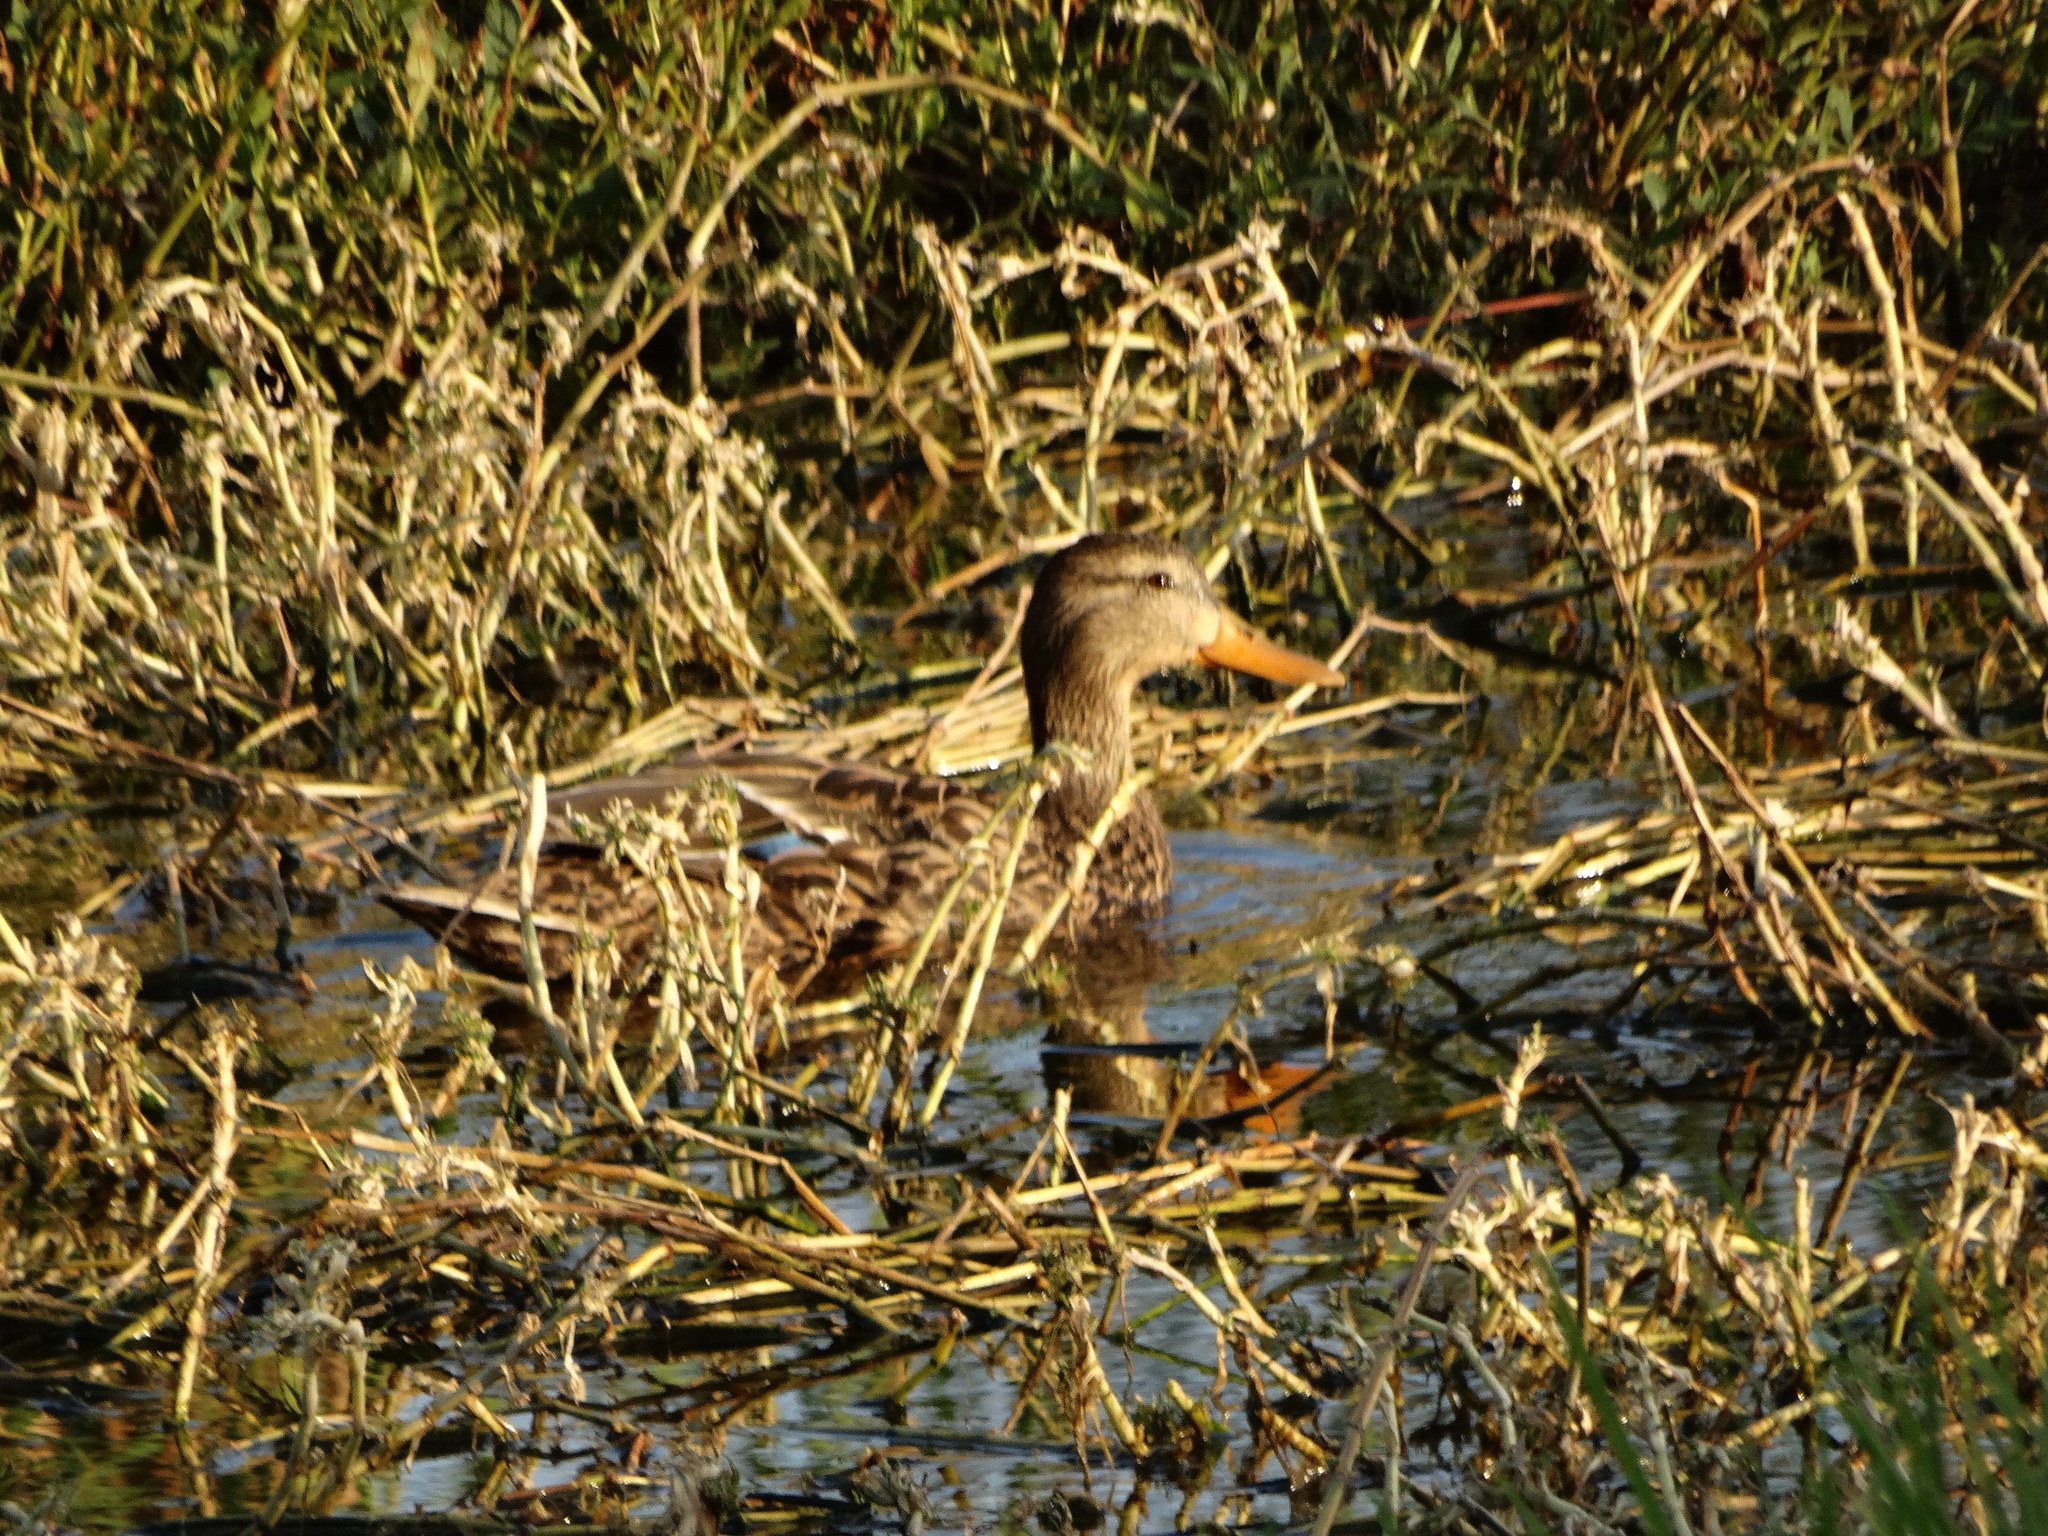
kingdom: Animalia
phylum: Chordata
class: Aves
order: Anseriformes
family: Anatidae
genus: Anas
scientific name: Anas diazi
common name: Mexican duck
